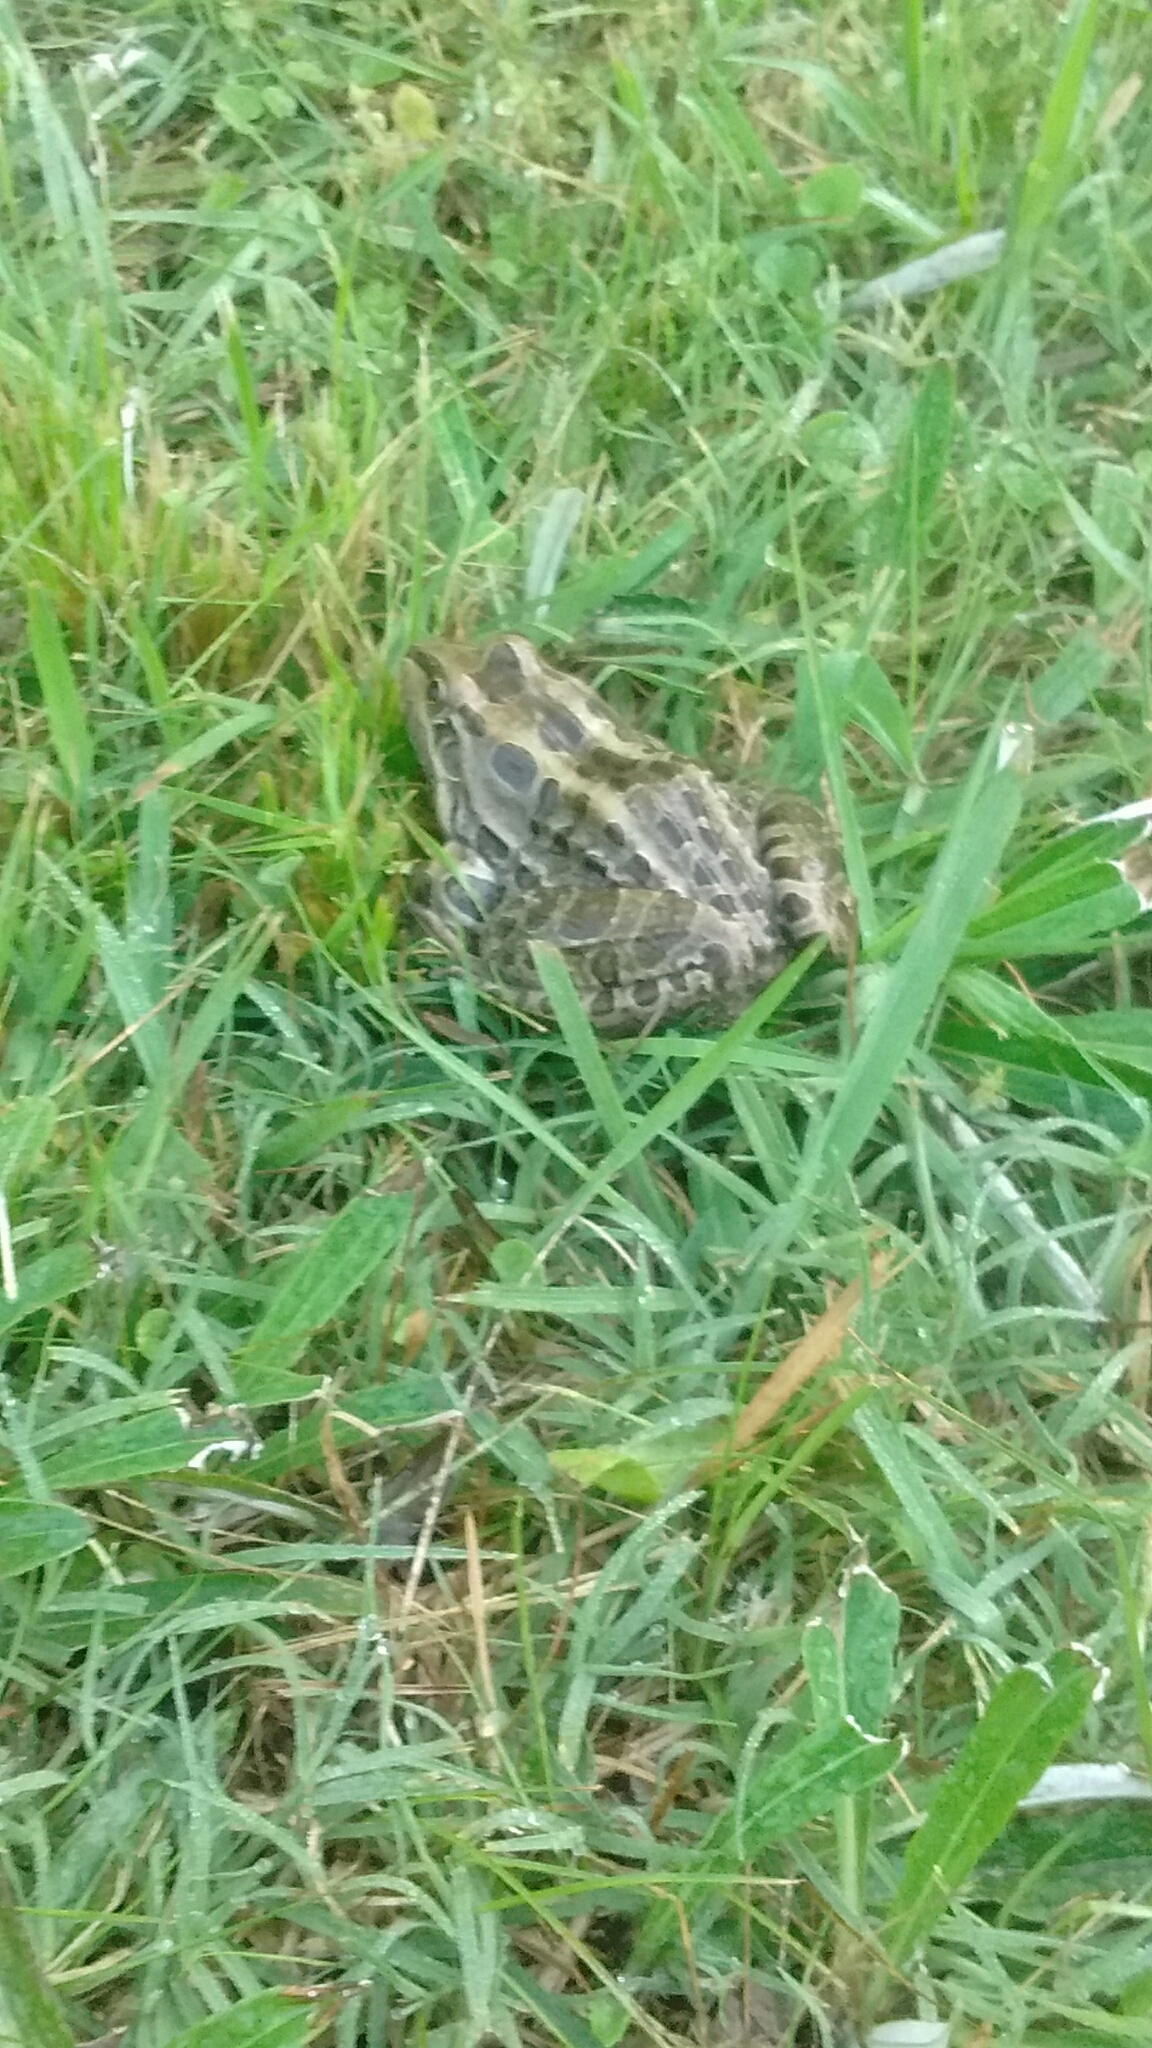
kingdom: Animalia
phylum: Chordata
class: Amphibia
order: Anura
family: Leptodactylidae
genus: Leptodactylus
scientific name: Leptodactylus luctator
